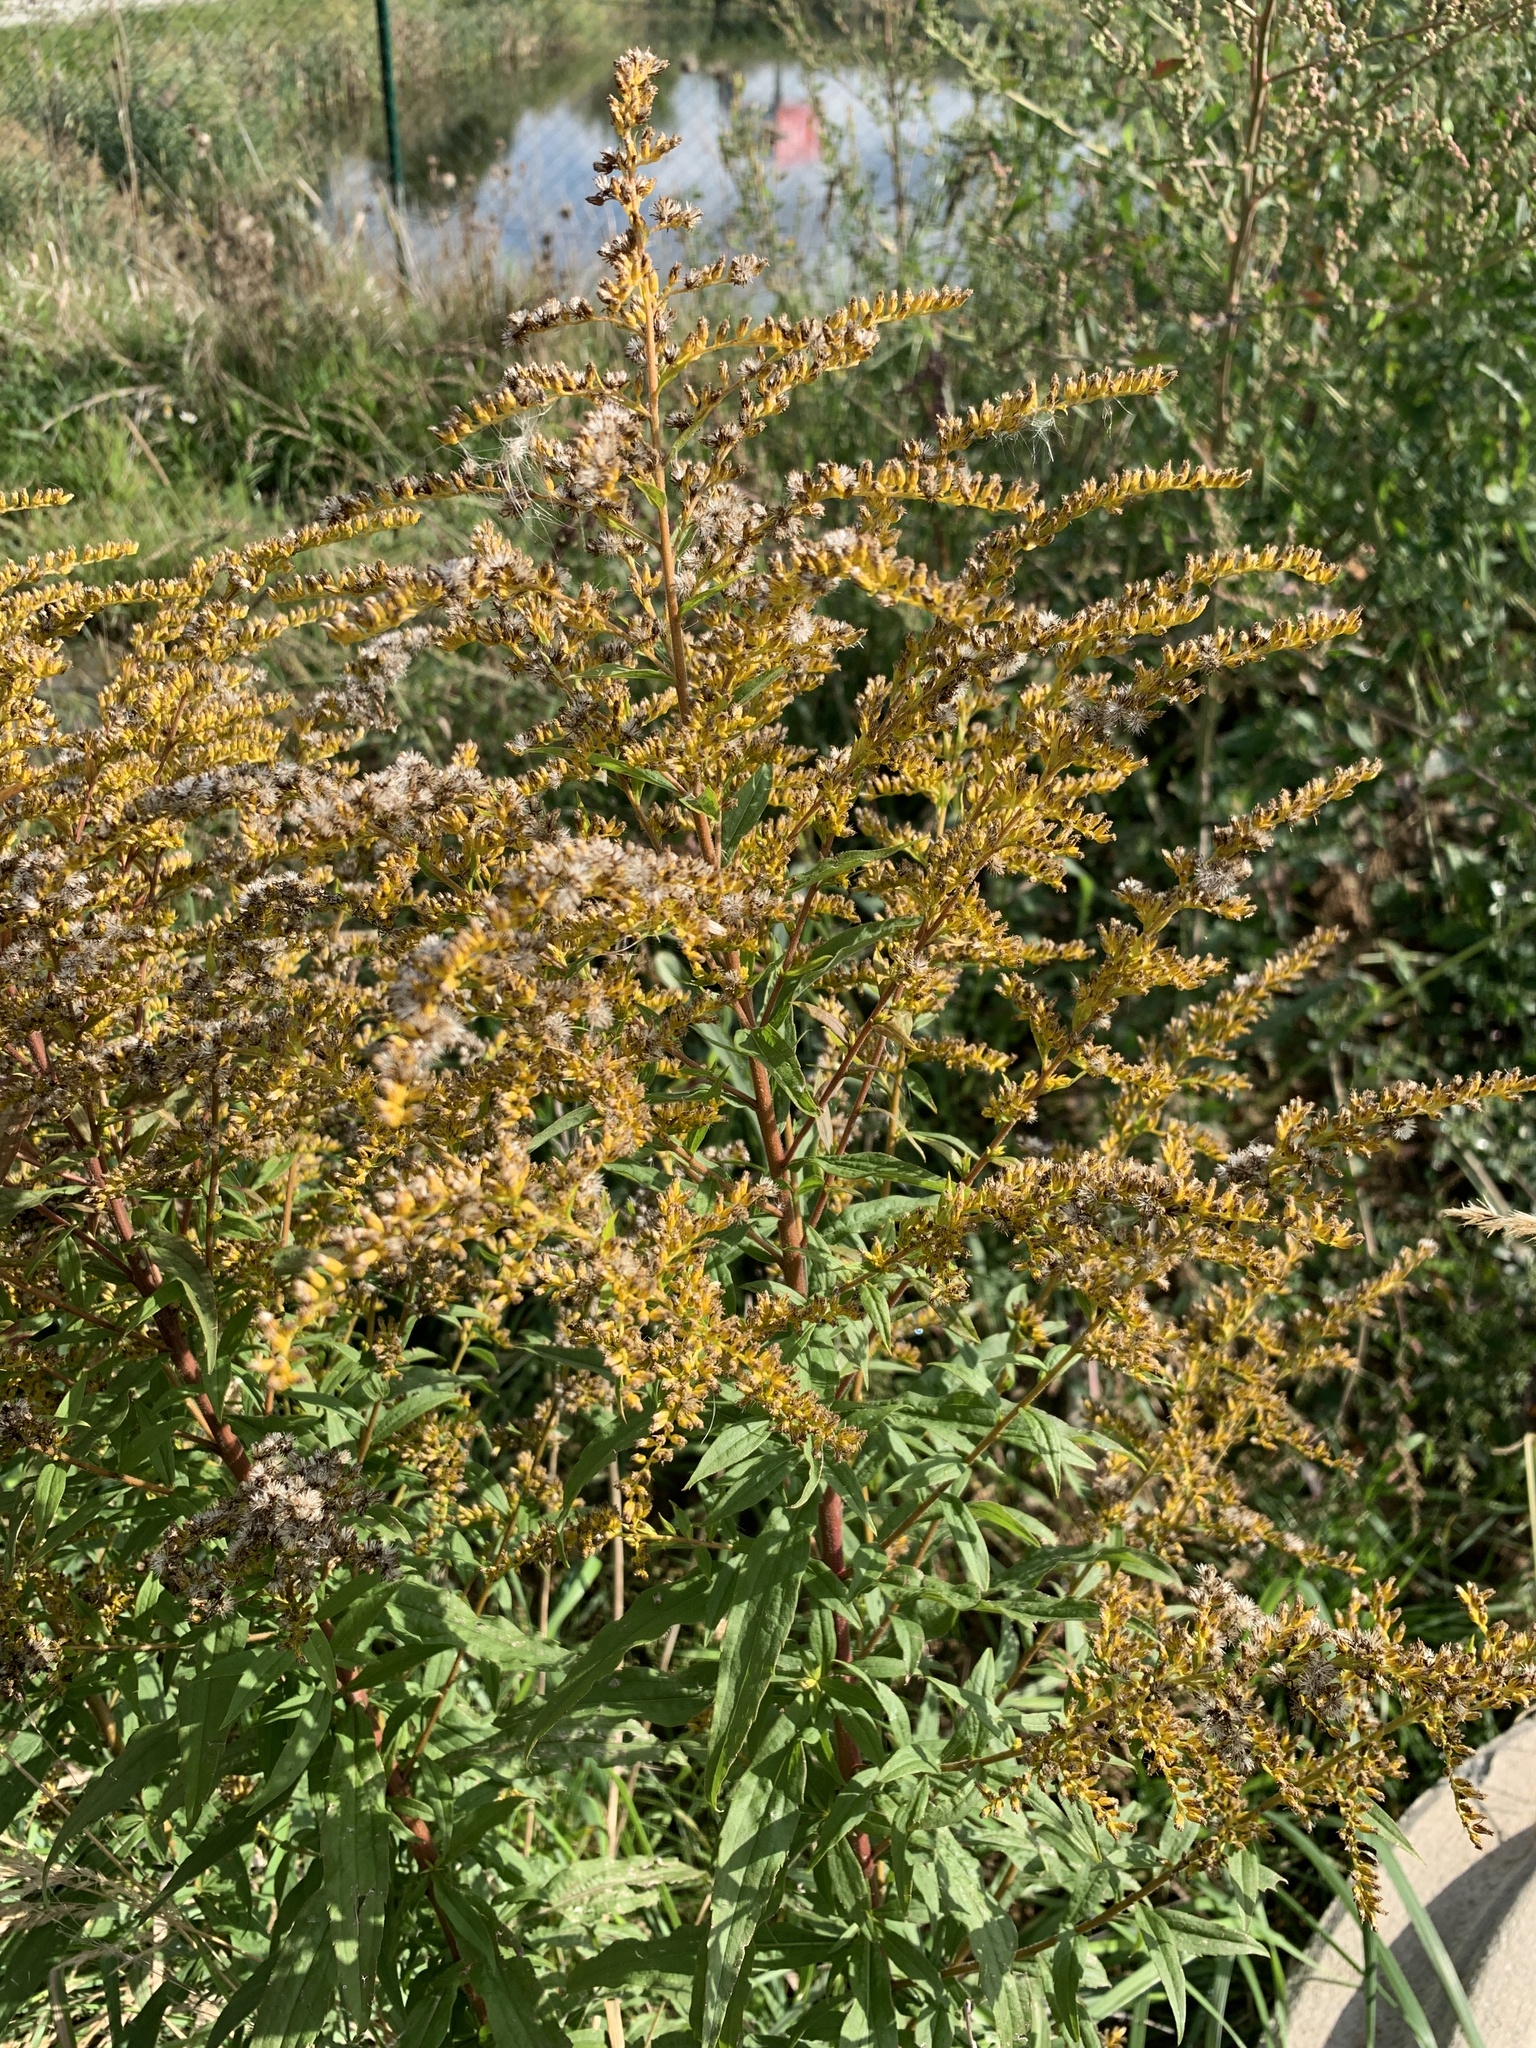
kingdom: Plantae
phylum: Tracheophyta
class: Magnoliopsida
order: Asterales
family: Asteraceae
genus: Solidago
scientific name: Solidago canadensis
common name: Canada goldenrod
